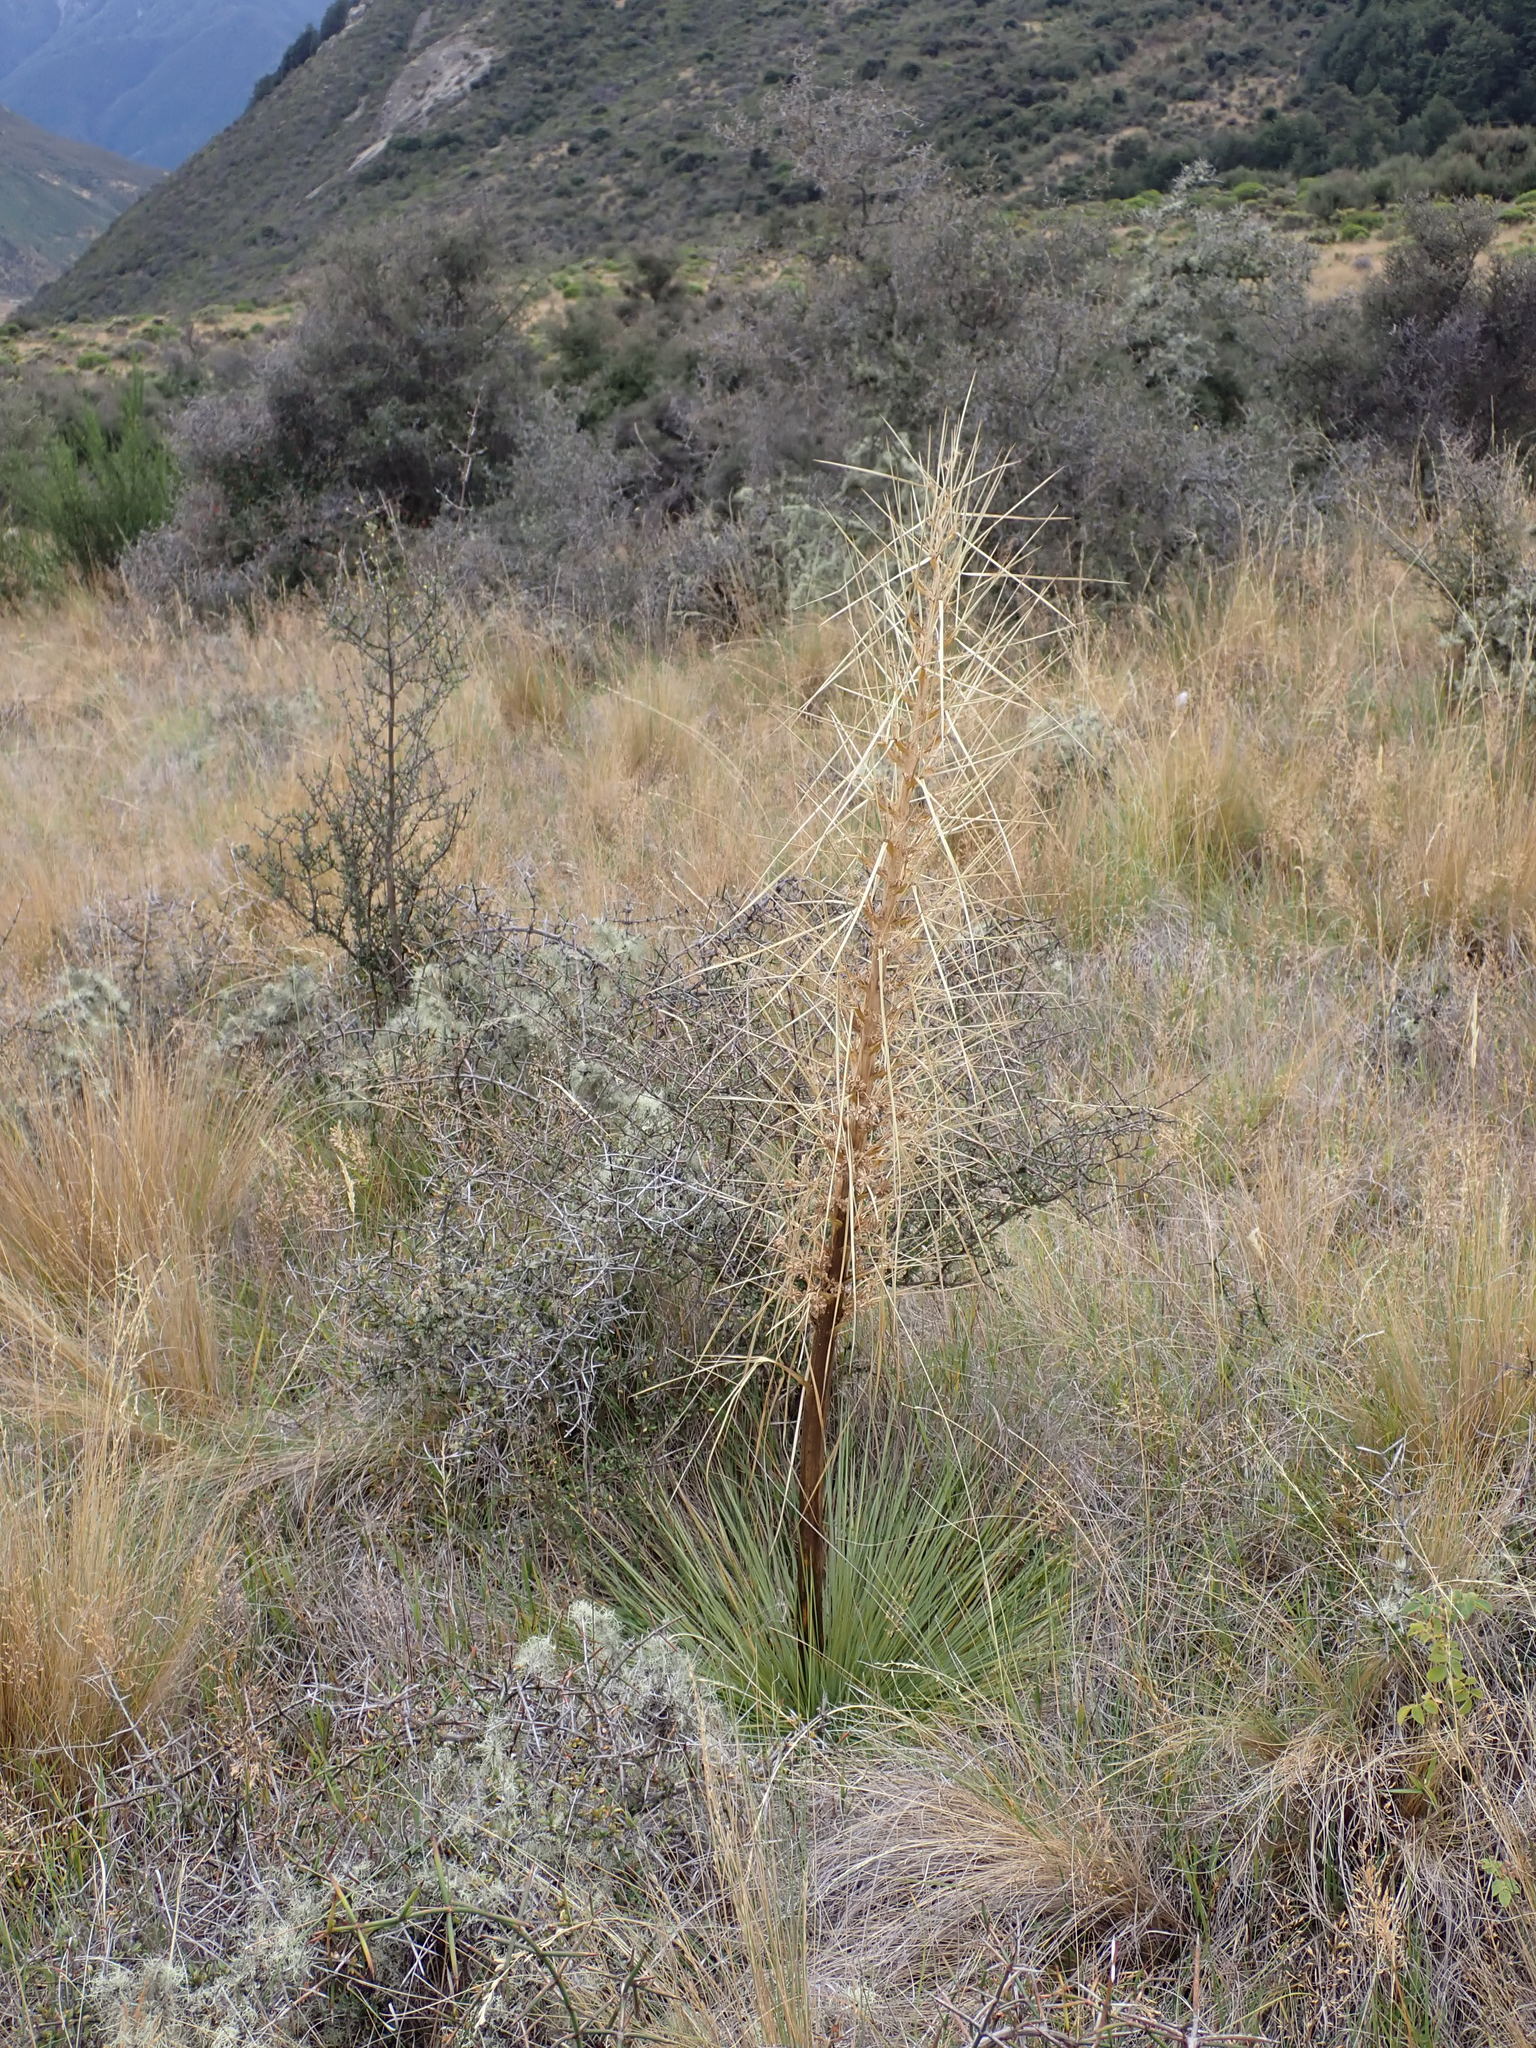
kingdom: Plantae
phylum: Tracheophyta
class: Magnoliopsida
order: Apiales
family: Apiaceae
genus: Aciphylla
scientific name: Aciphylla subflabellata
